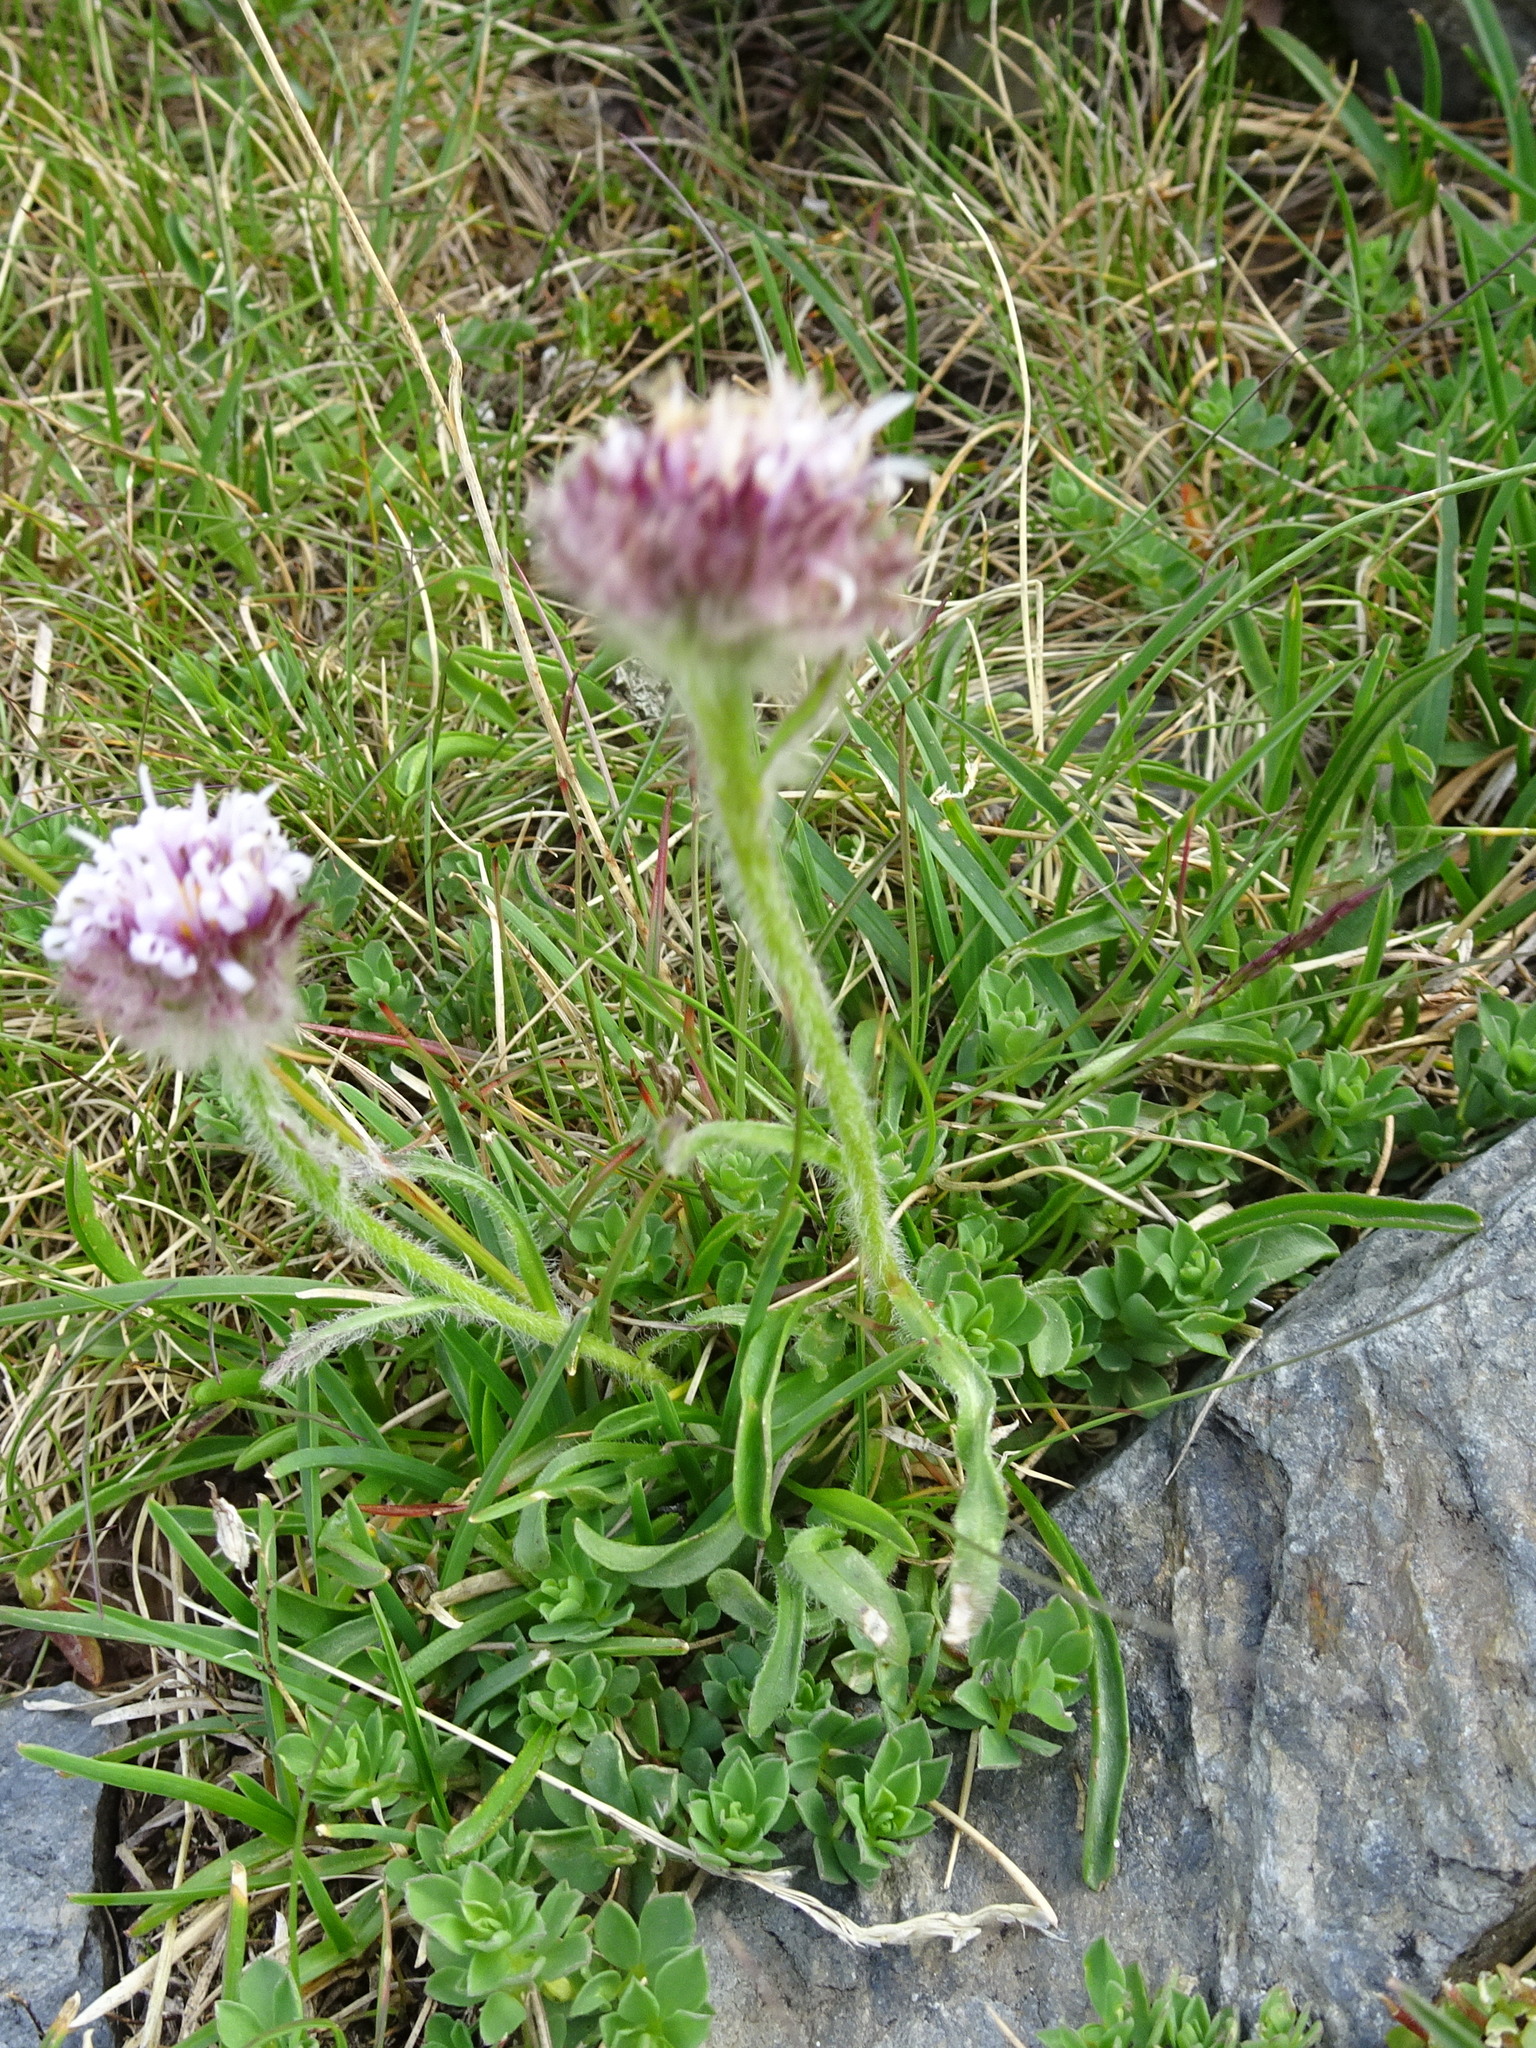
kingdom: Plantae
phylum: Tracheophyta
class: Magnoliopsida
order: Asterales
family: Asteraceae
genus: Erigeron
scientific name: Erigeron alpinus
